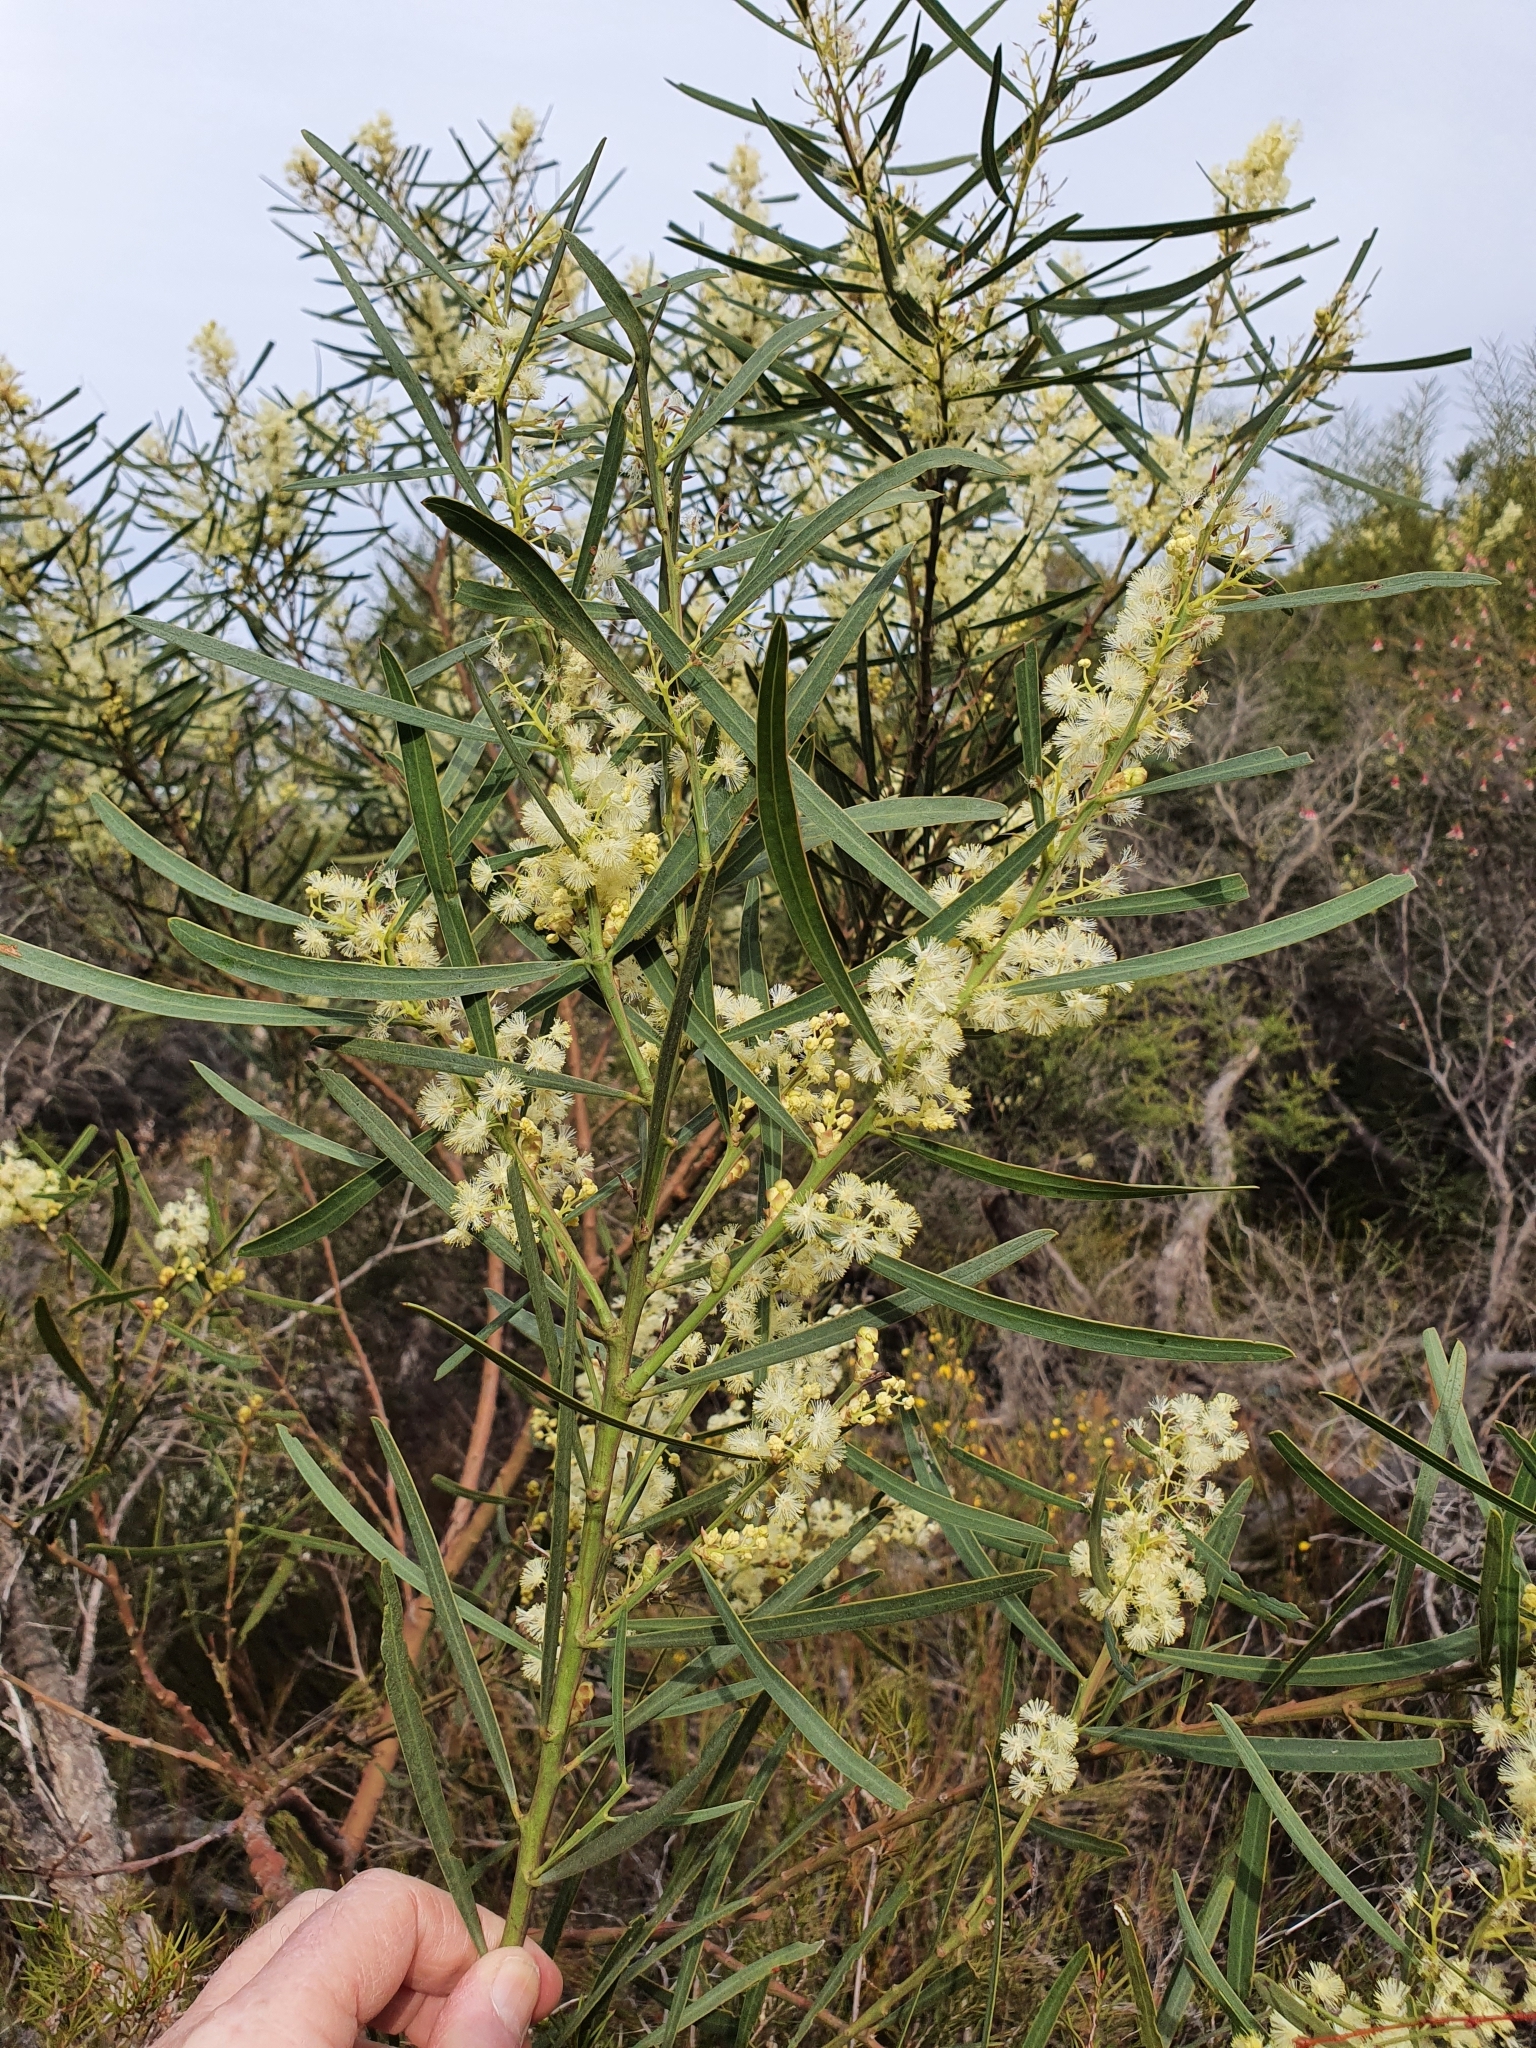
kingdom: Plantae
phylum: Tracheophyta
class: Magnoliopsida
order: Fabales
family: Fabaceae
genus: Acacia
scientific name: Acacia suaveolens
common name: Sweet acacia
